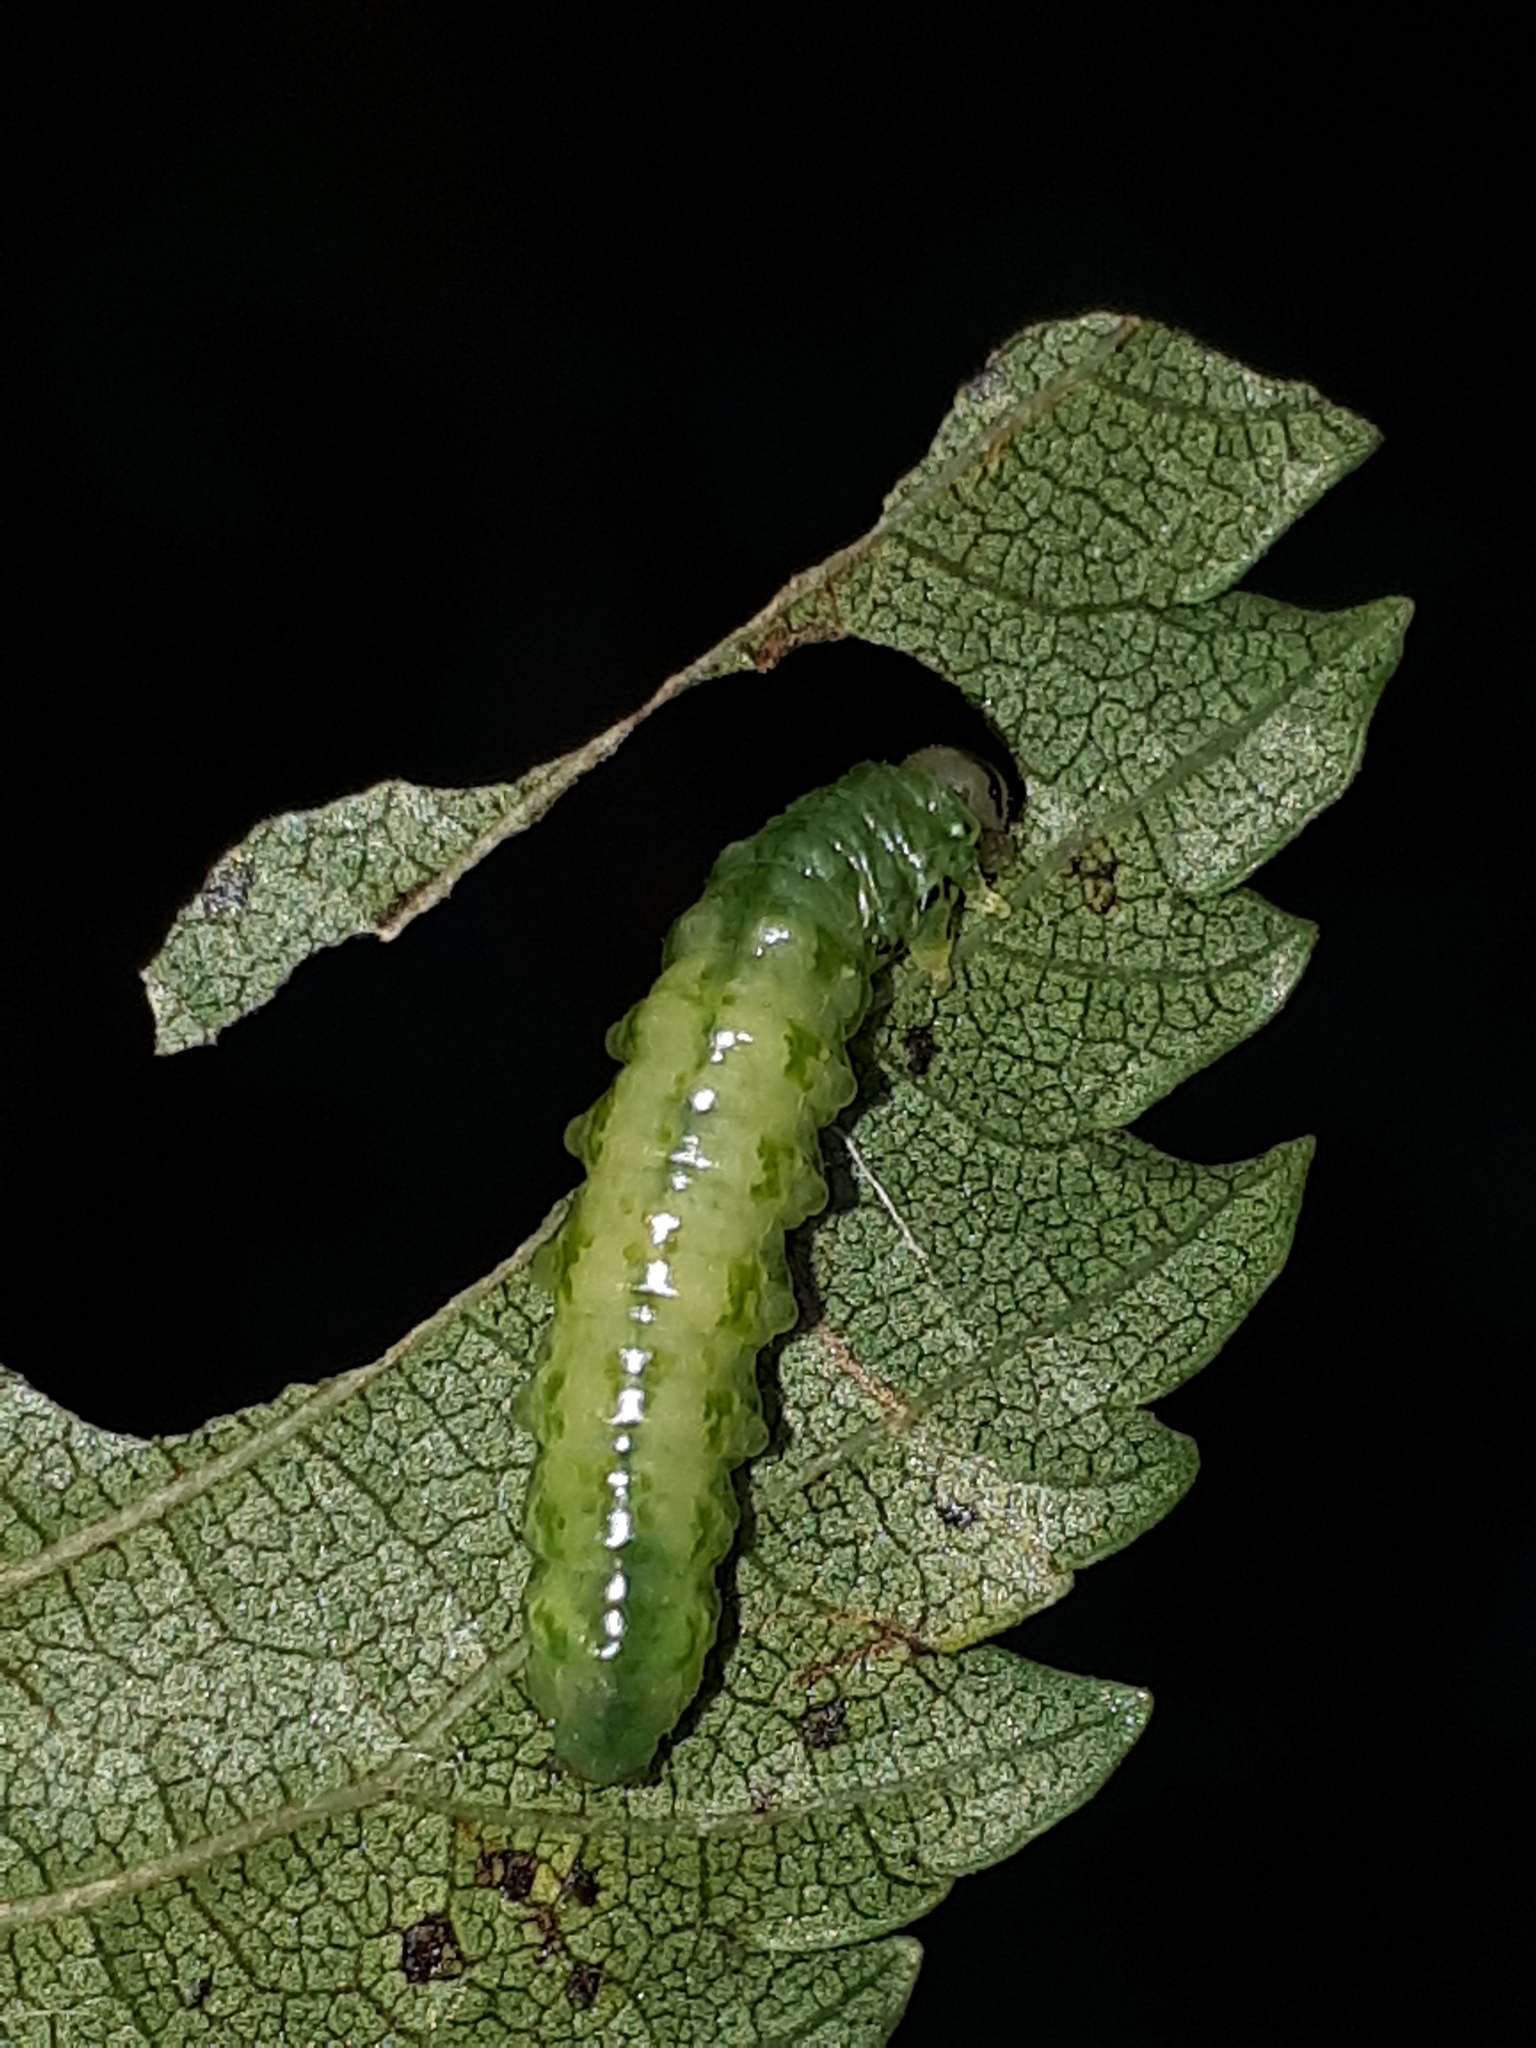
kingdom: Animalia
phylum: Arthropoda
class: Insecta
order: Hymenoptera
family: Argidae
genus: Aproceros
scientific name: Aproceros leucopoda
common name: Zig-zag elm sawfly
